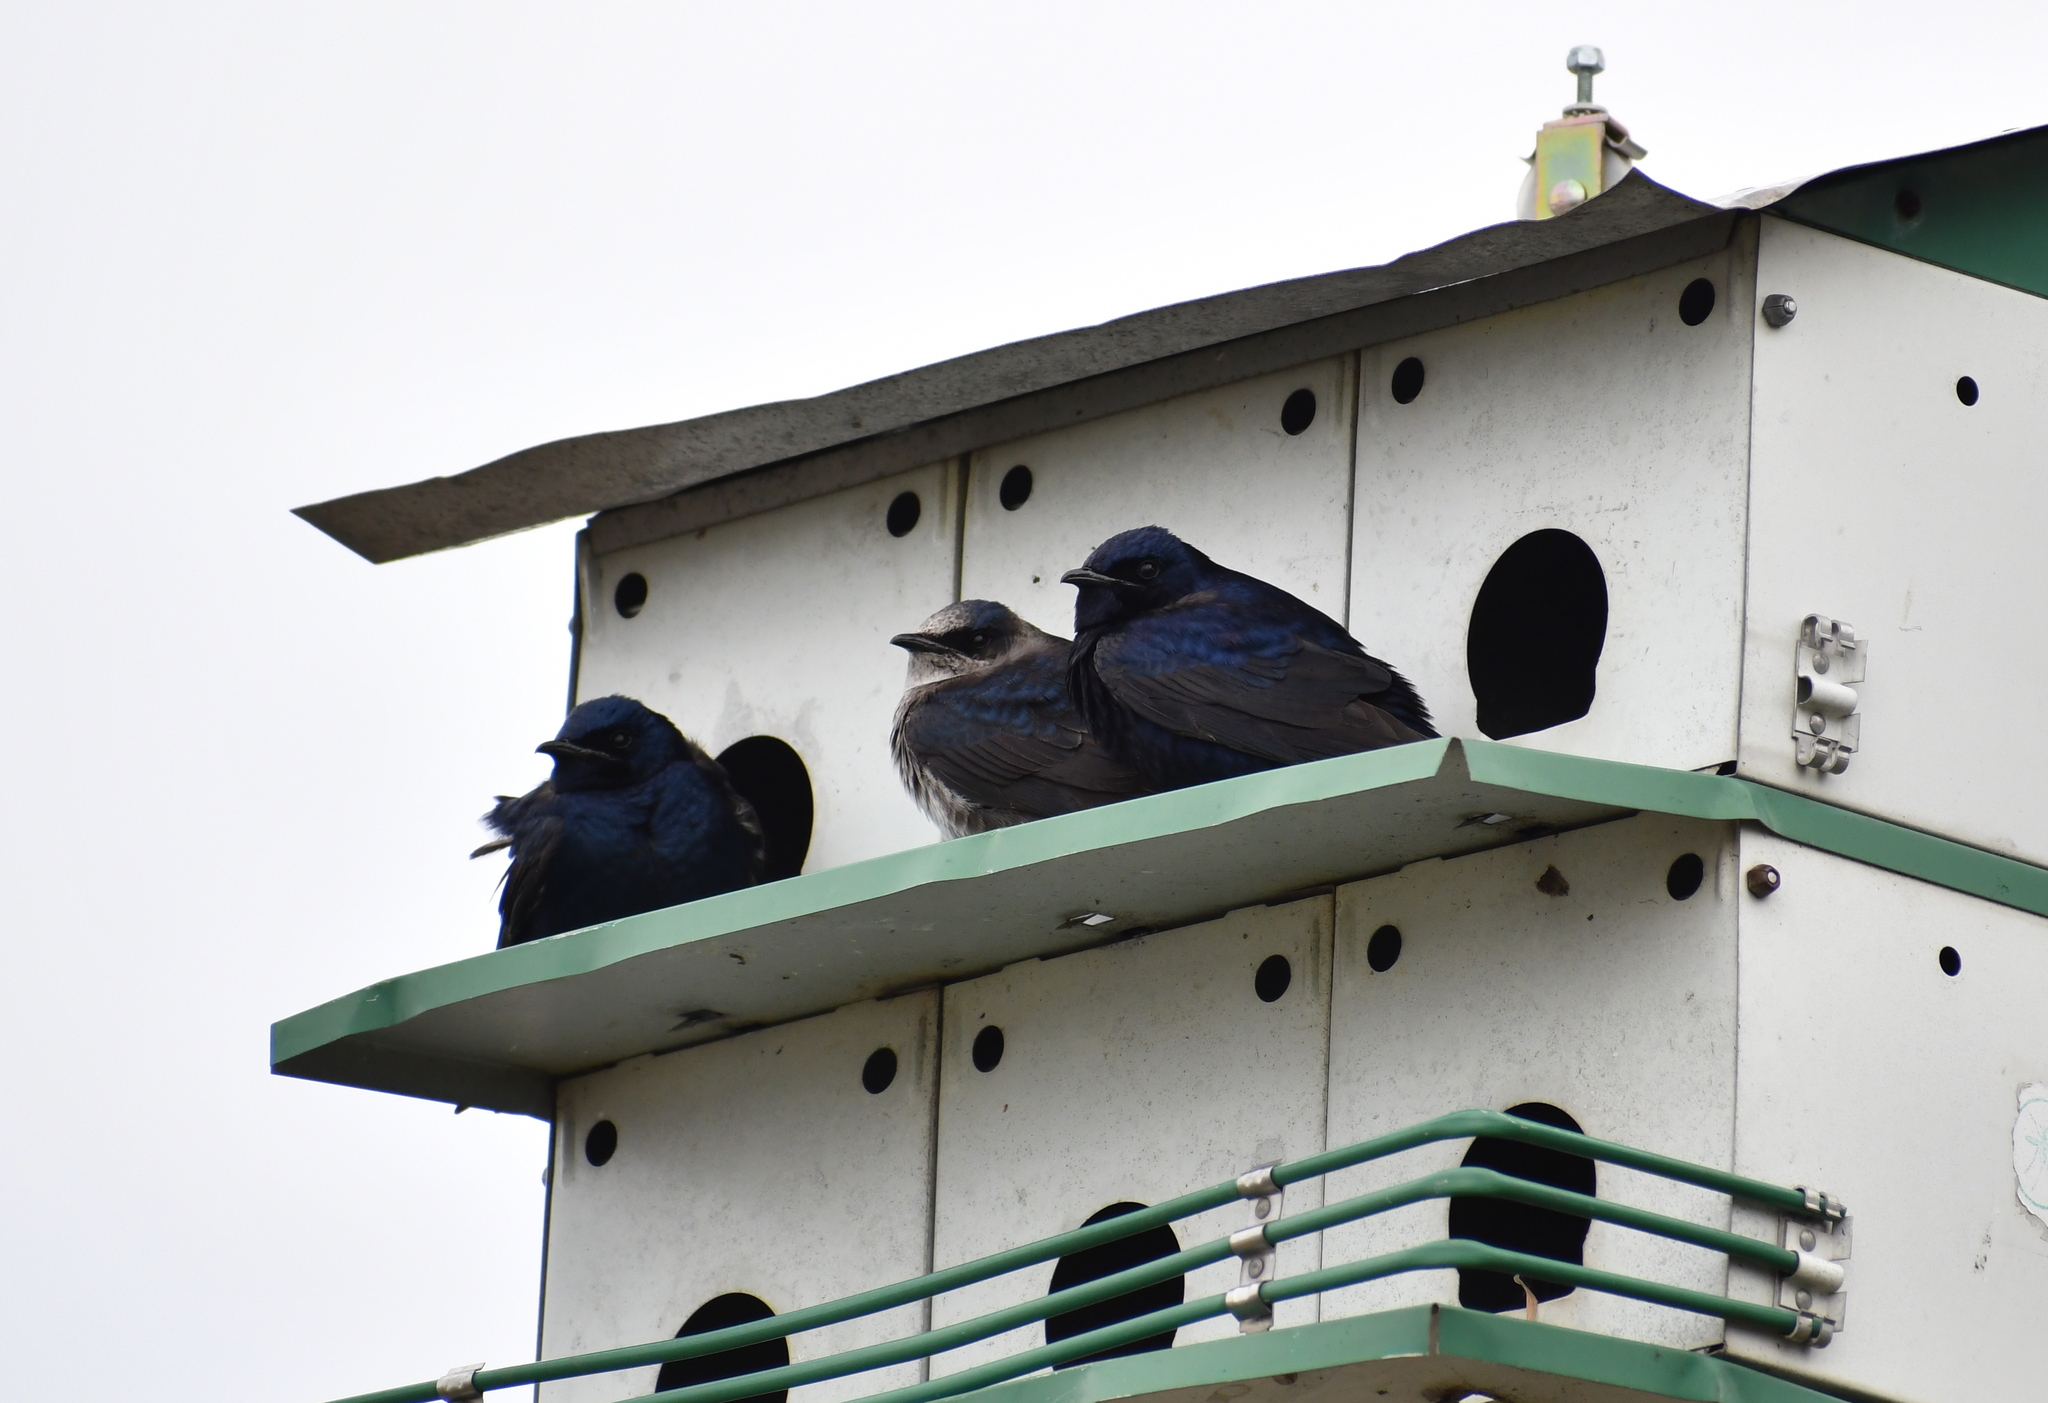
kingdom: Animalia
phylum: Chordata
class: Aves
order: Passeriformes
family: Hirundinidae
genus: Progne
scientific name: Progne subis
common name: Purple martin
